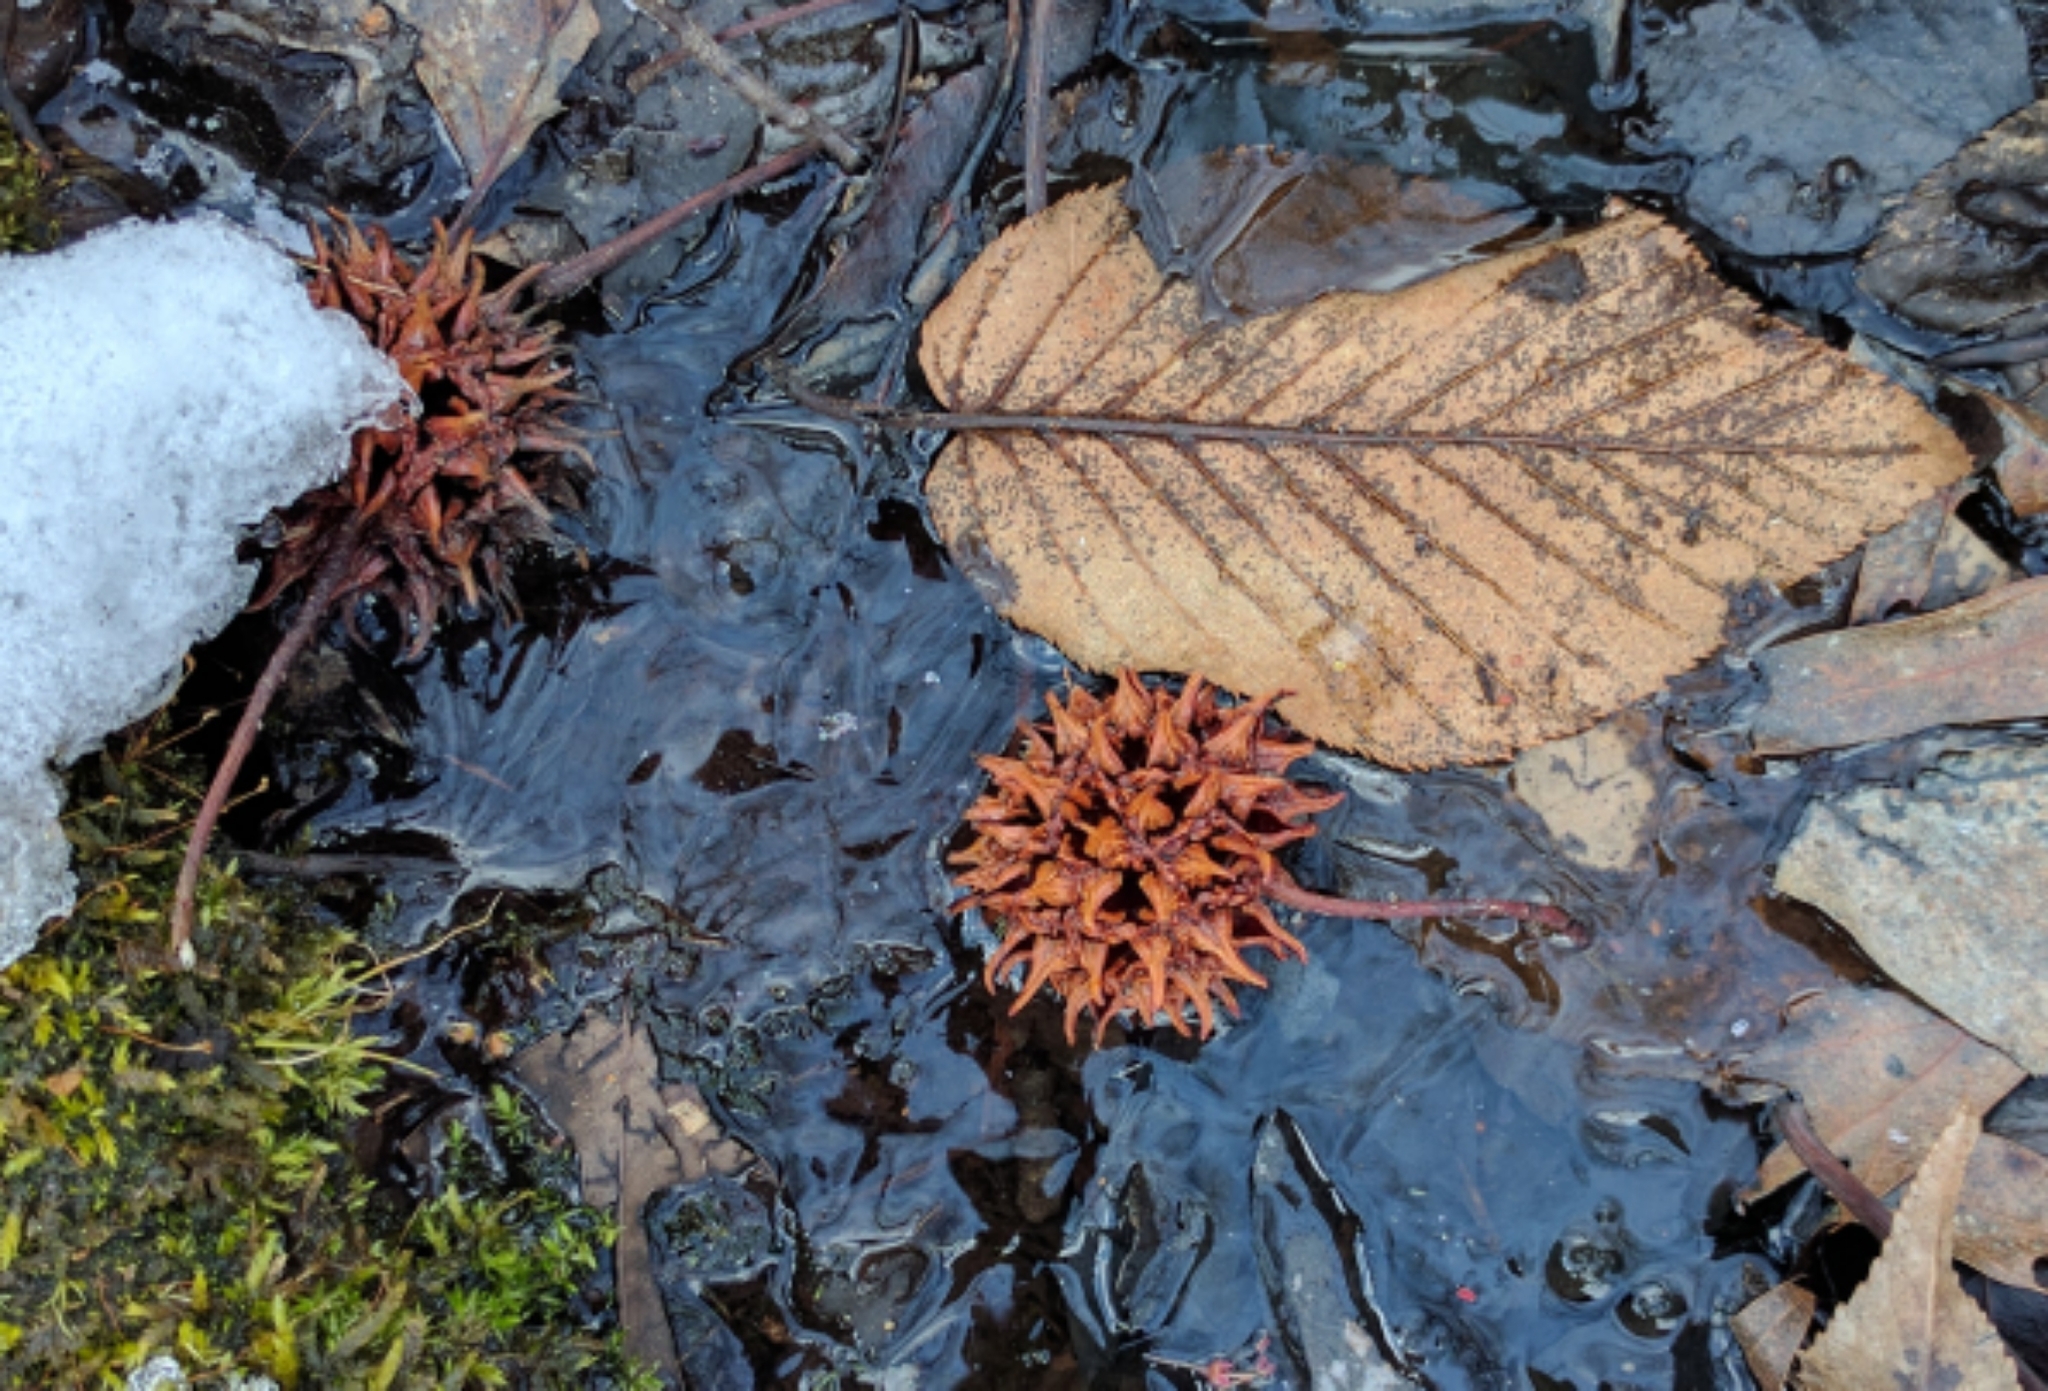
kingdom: Plantae
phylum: Tracheophyta
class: Magnoliopsida
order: Saxifragales
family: Altingiaceae
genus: Liquidambar
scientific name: Liquidambar styraciflua
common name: Sweet gum
